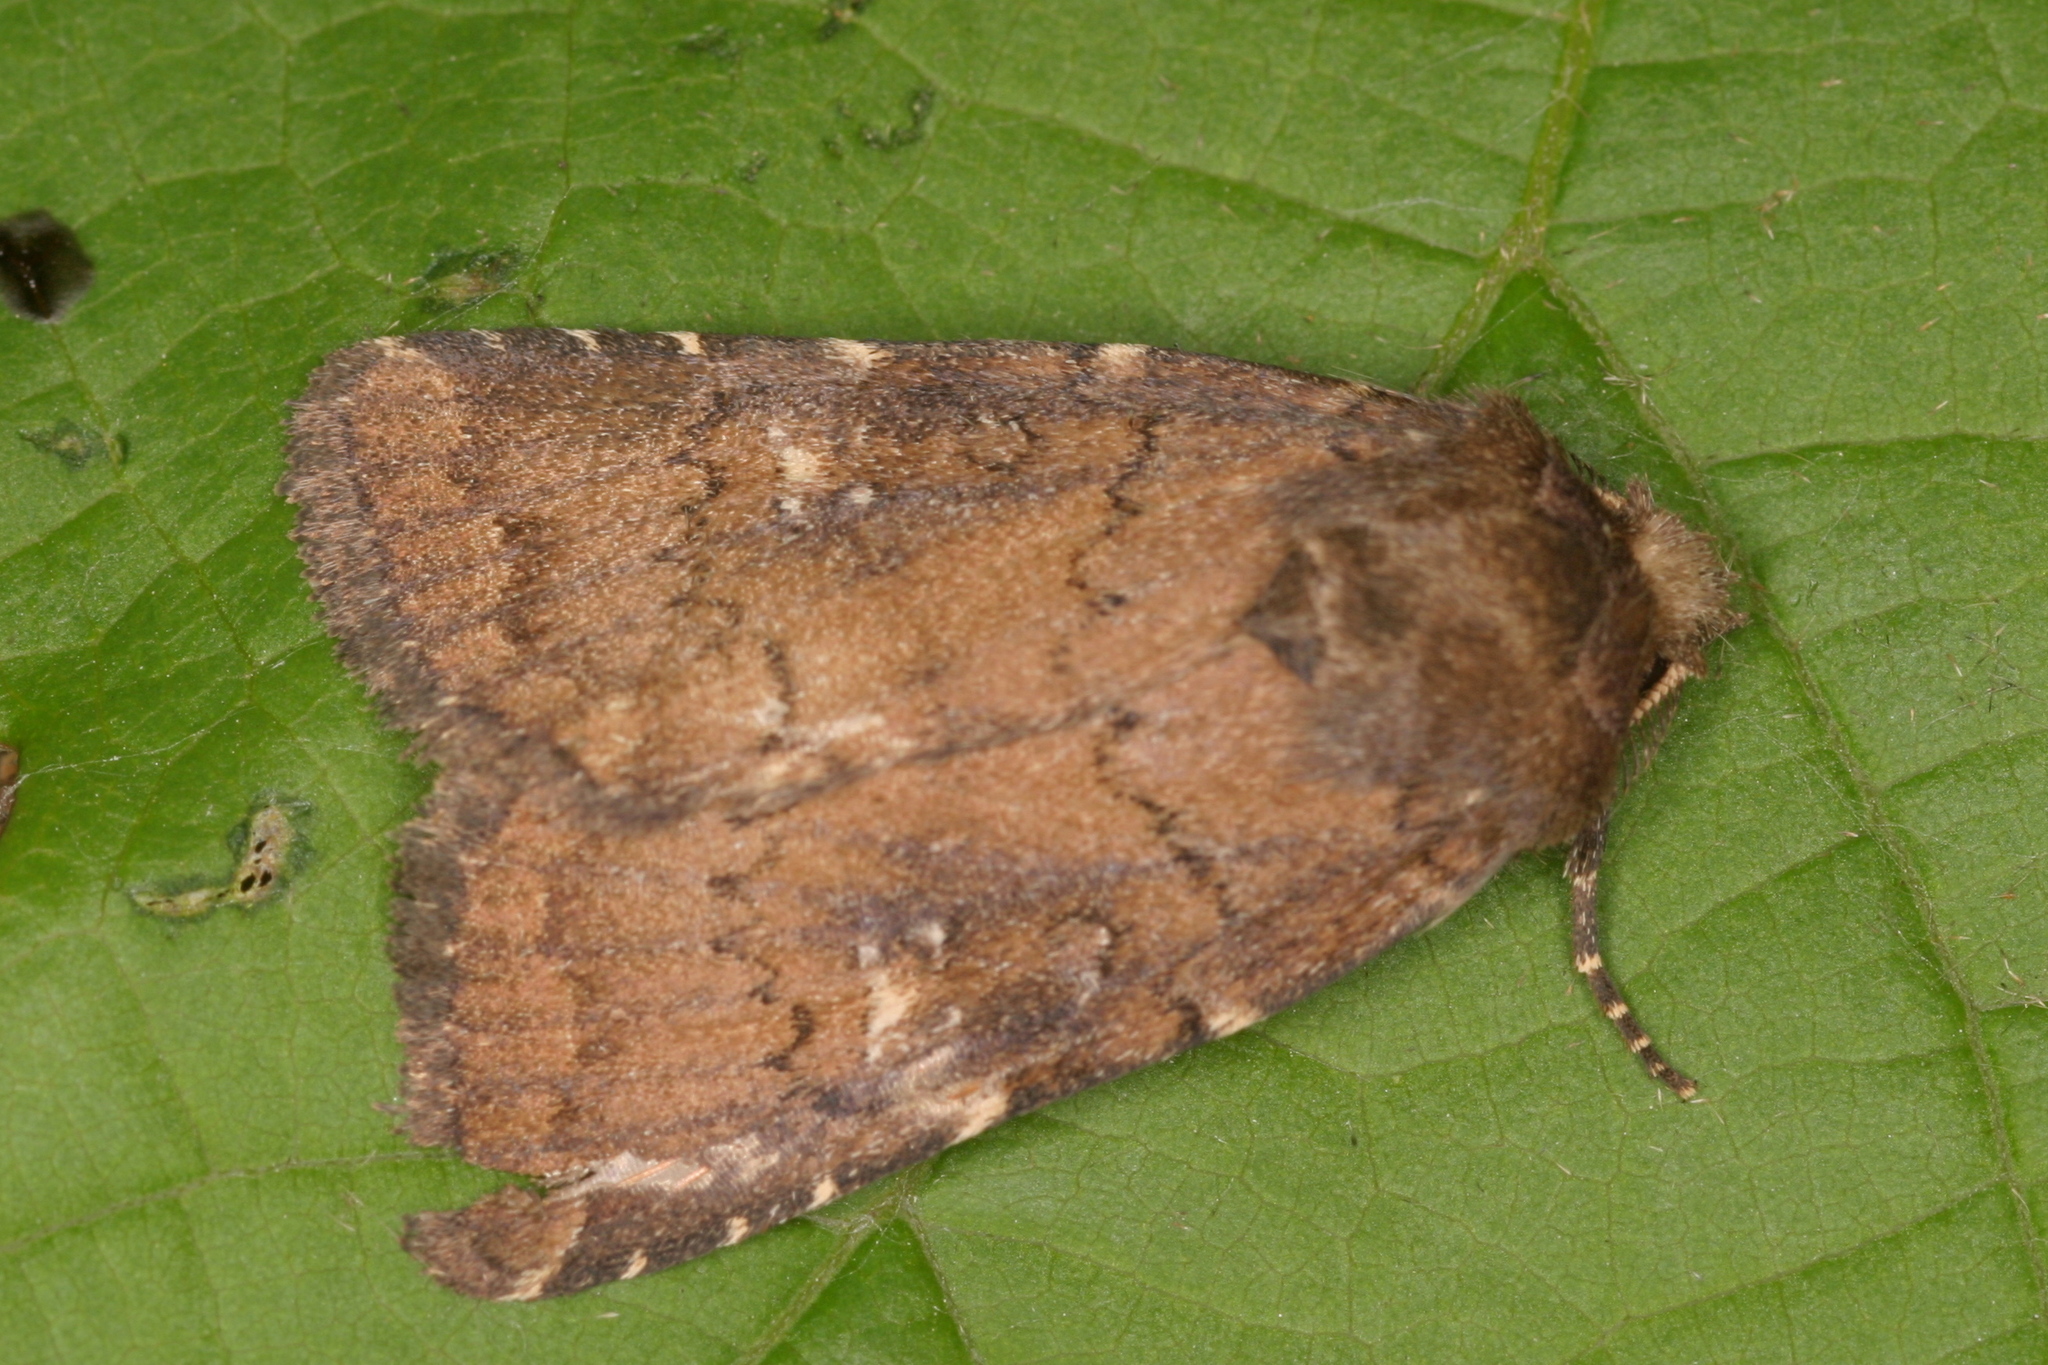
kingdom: Animalia
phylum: Arthropoda
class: Insecta
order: Lepidoptera
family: Noctuidae
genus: Charanyca
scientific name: Charanyca ferruginea
